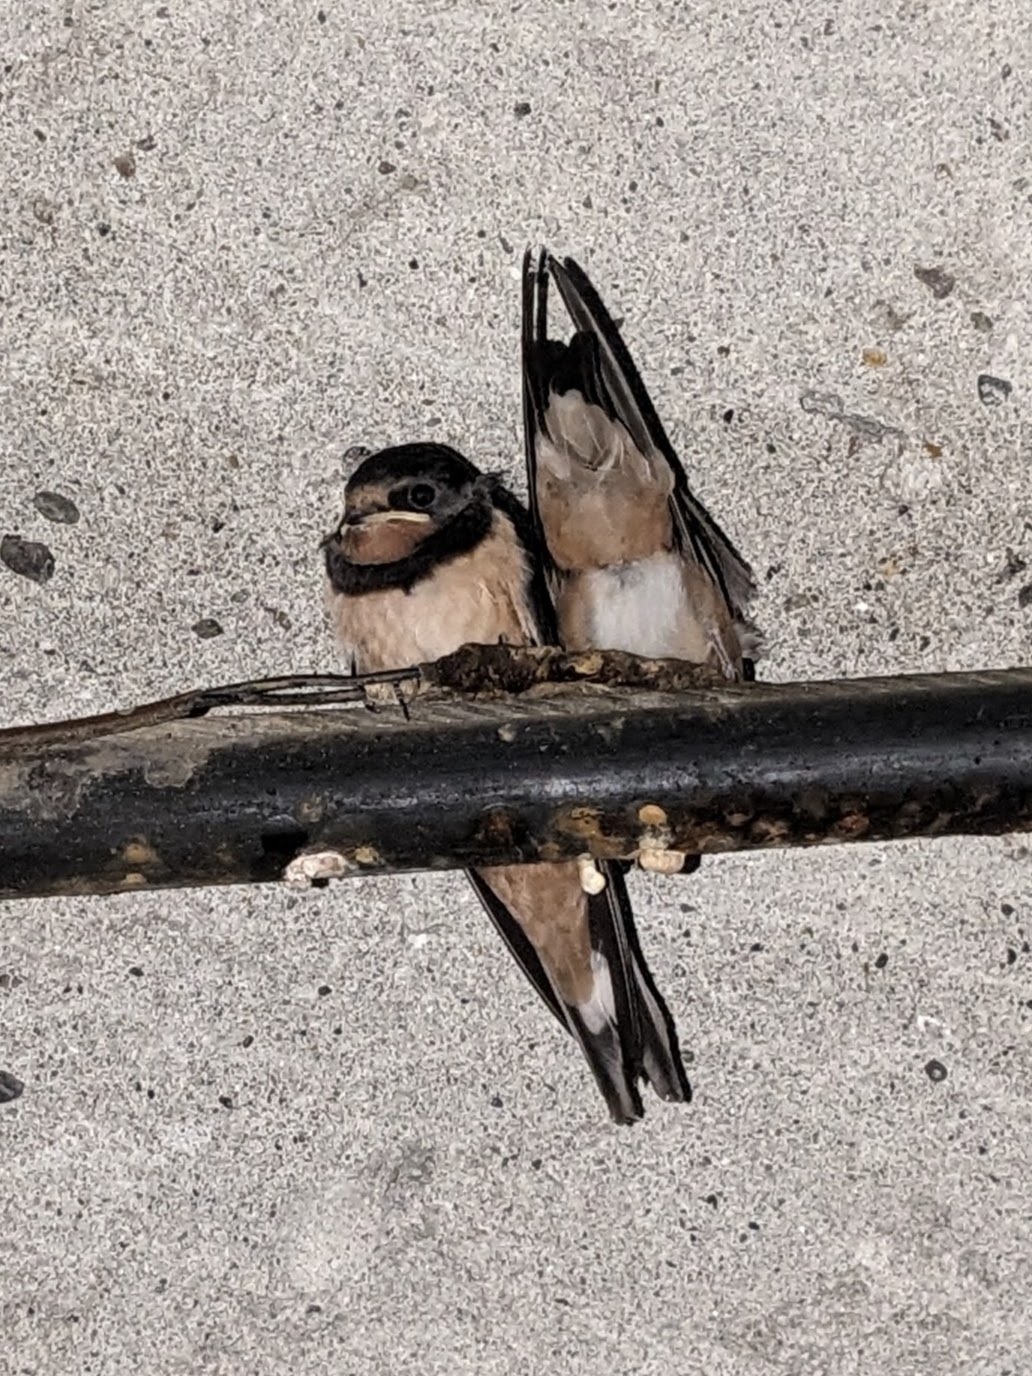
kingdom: Animalia
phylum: Chordata
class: Aves
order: Passeriformes
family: Hirundinidae
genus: Hirundo
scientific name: Hirundo rustica
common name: Barn swallow
